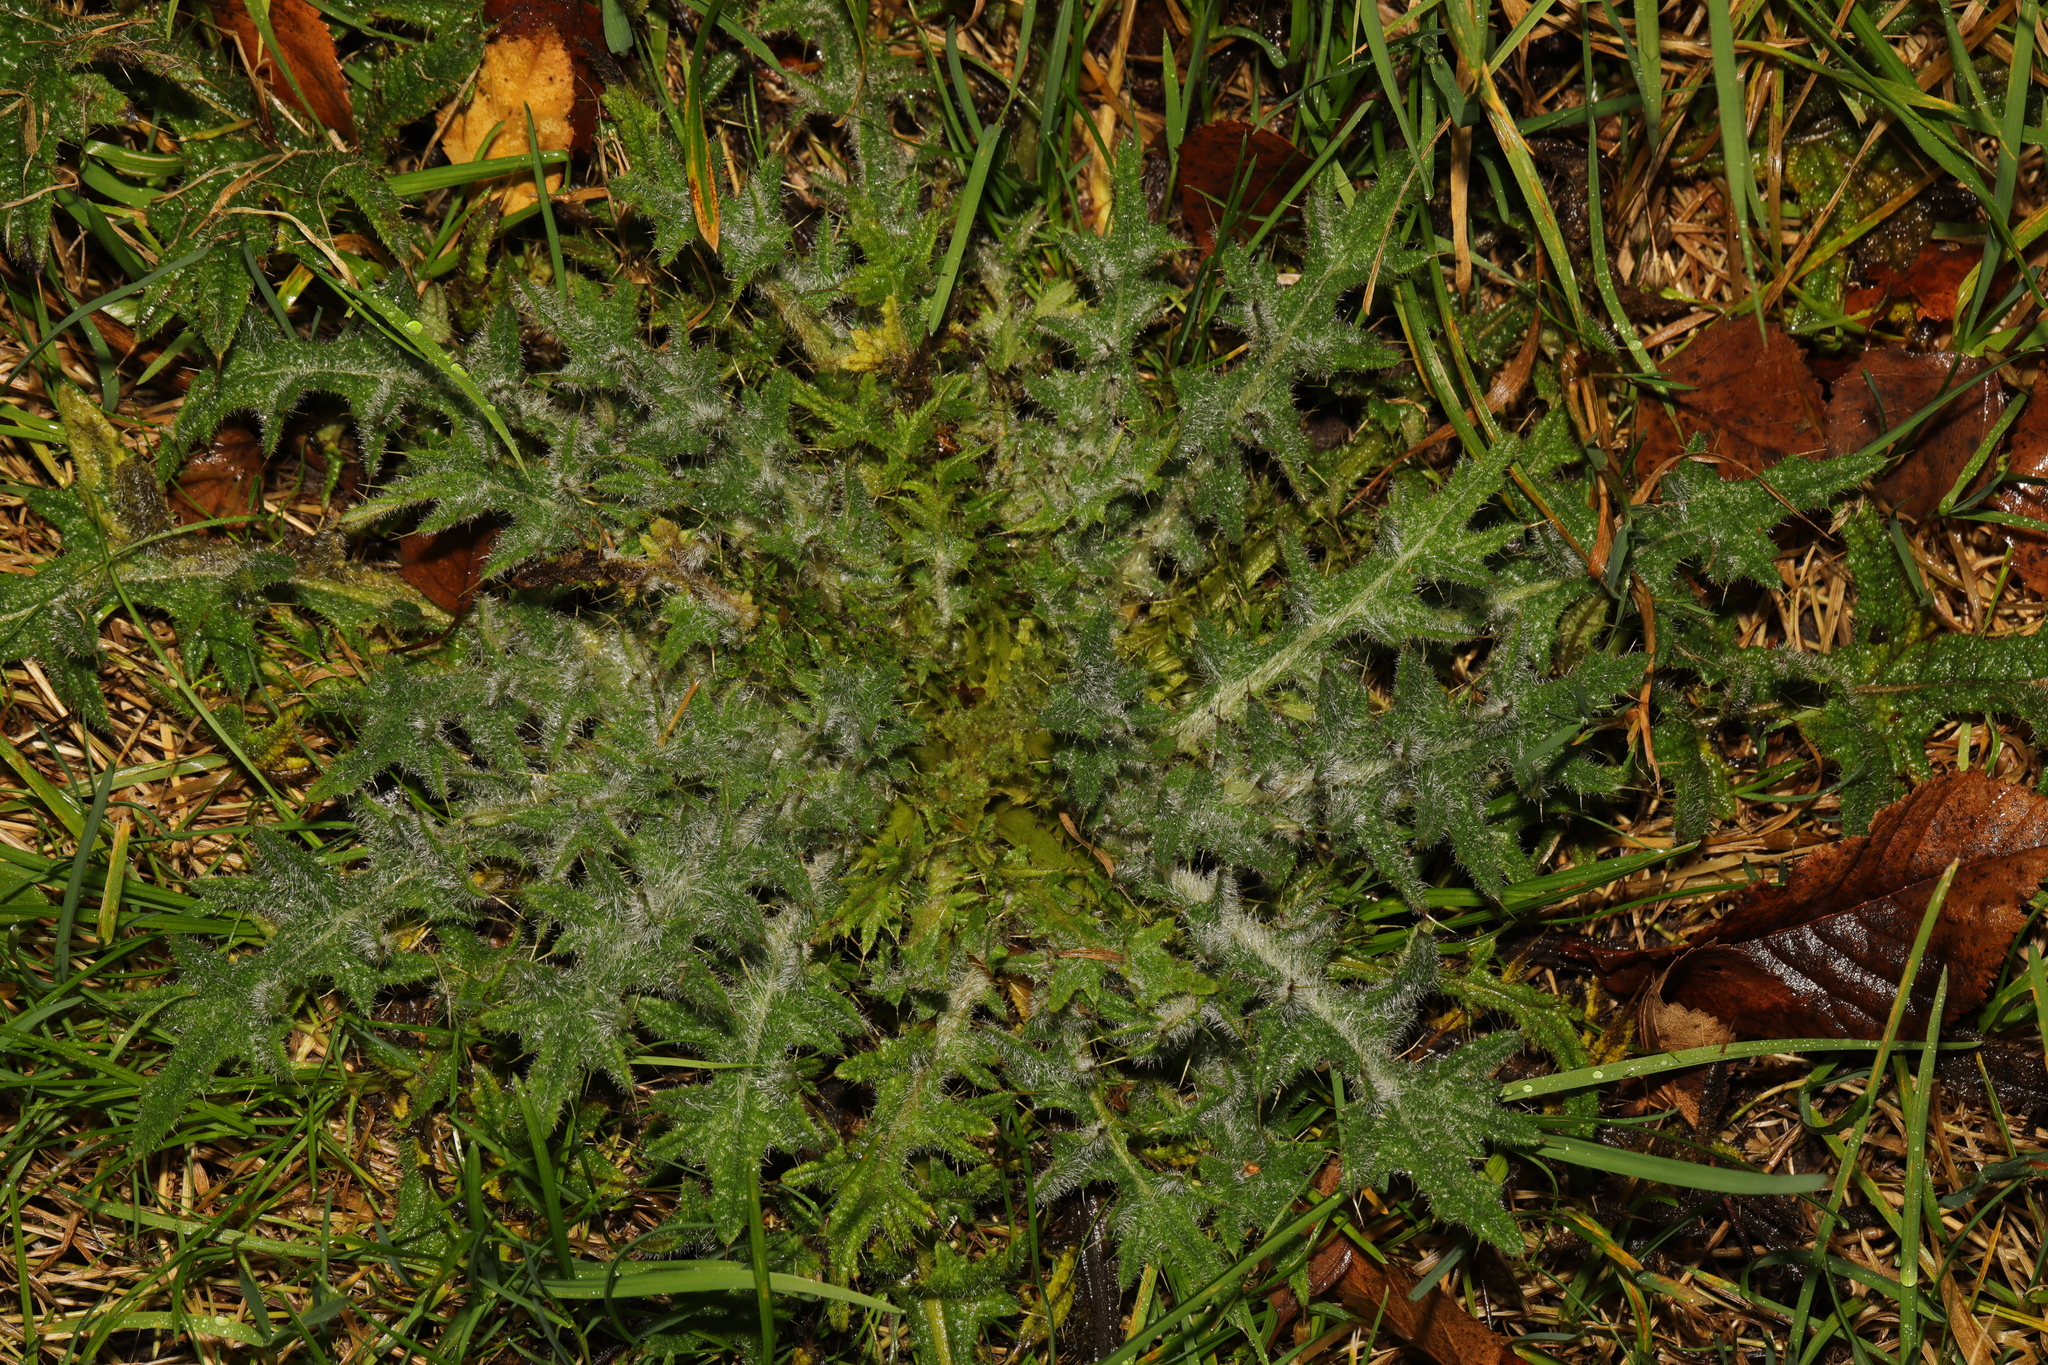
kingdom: Plantae
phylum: Tracheophyta
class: Magnoliopsida
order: Asterales
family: Asteraceae
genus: Cirsium
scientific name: Cirsium vulgare
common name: Bull thistle
